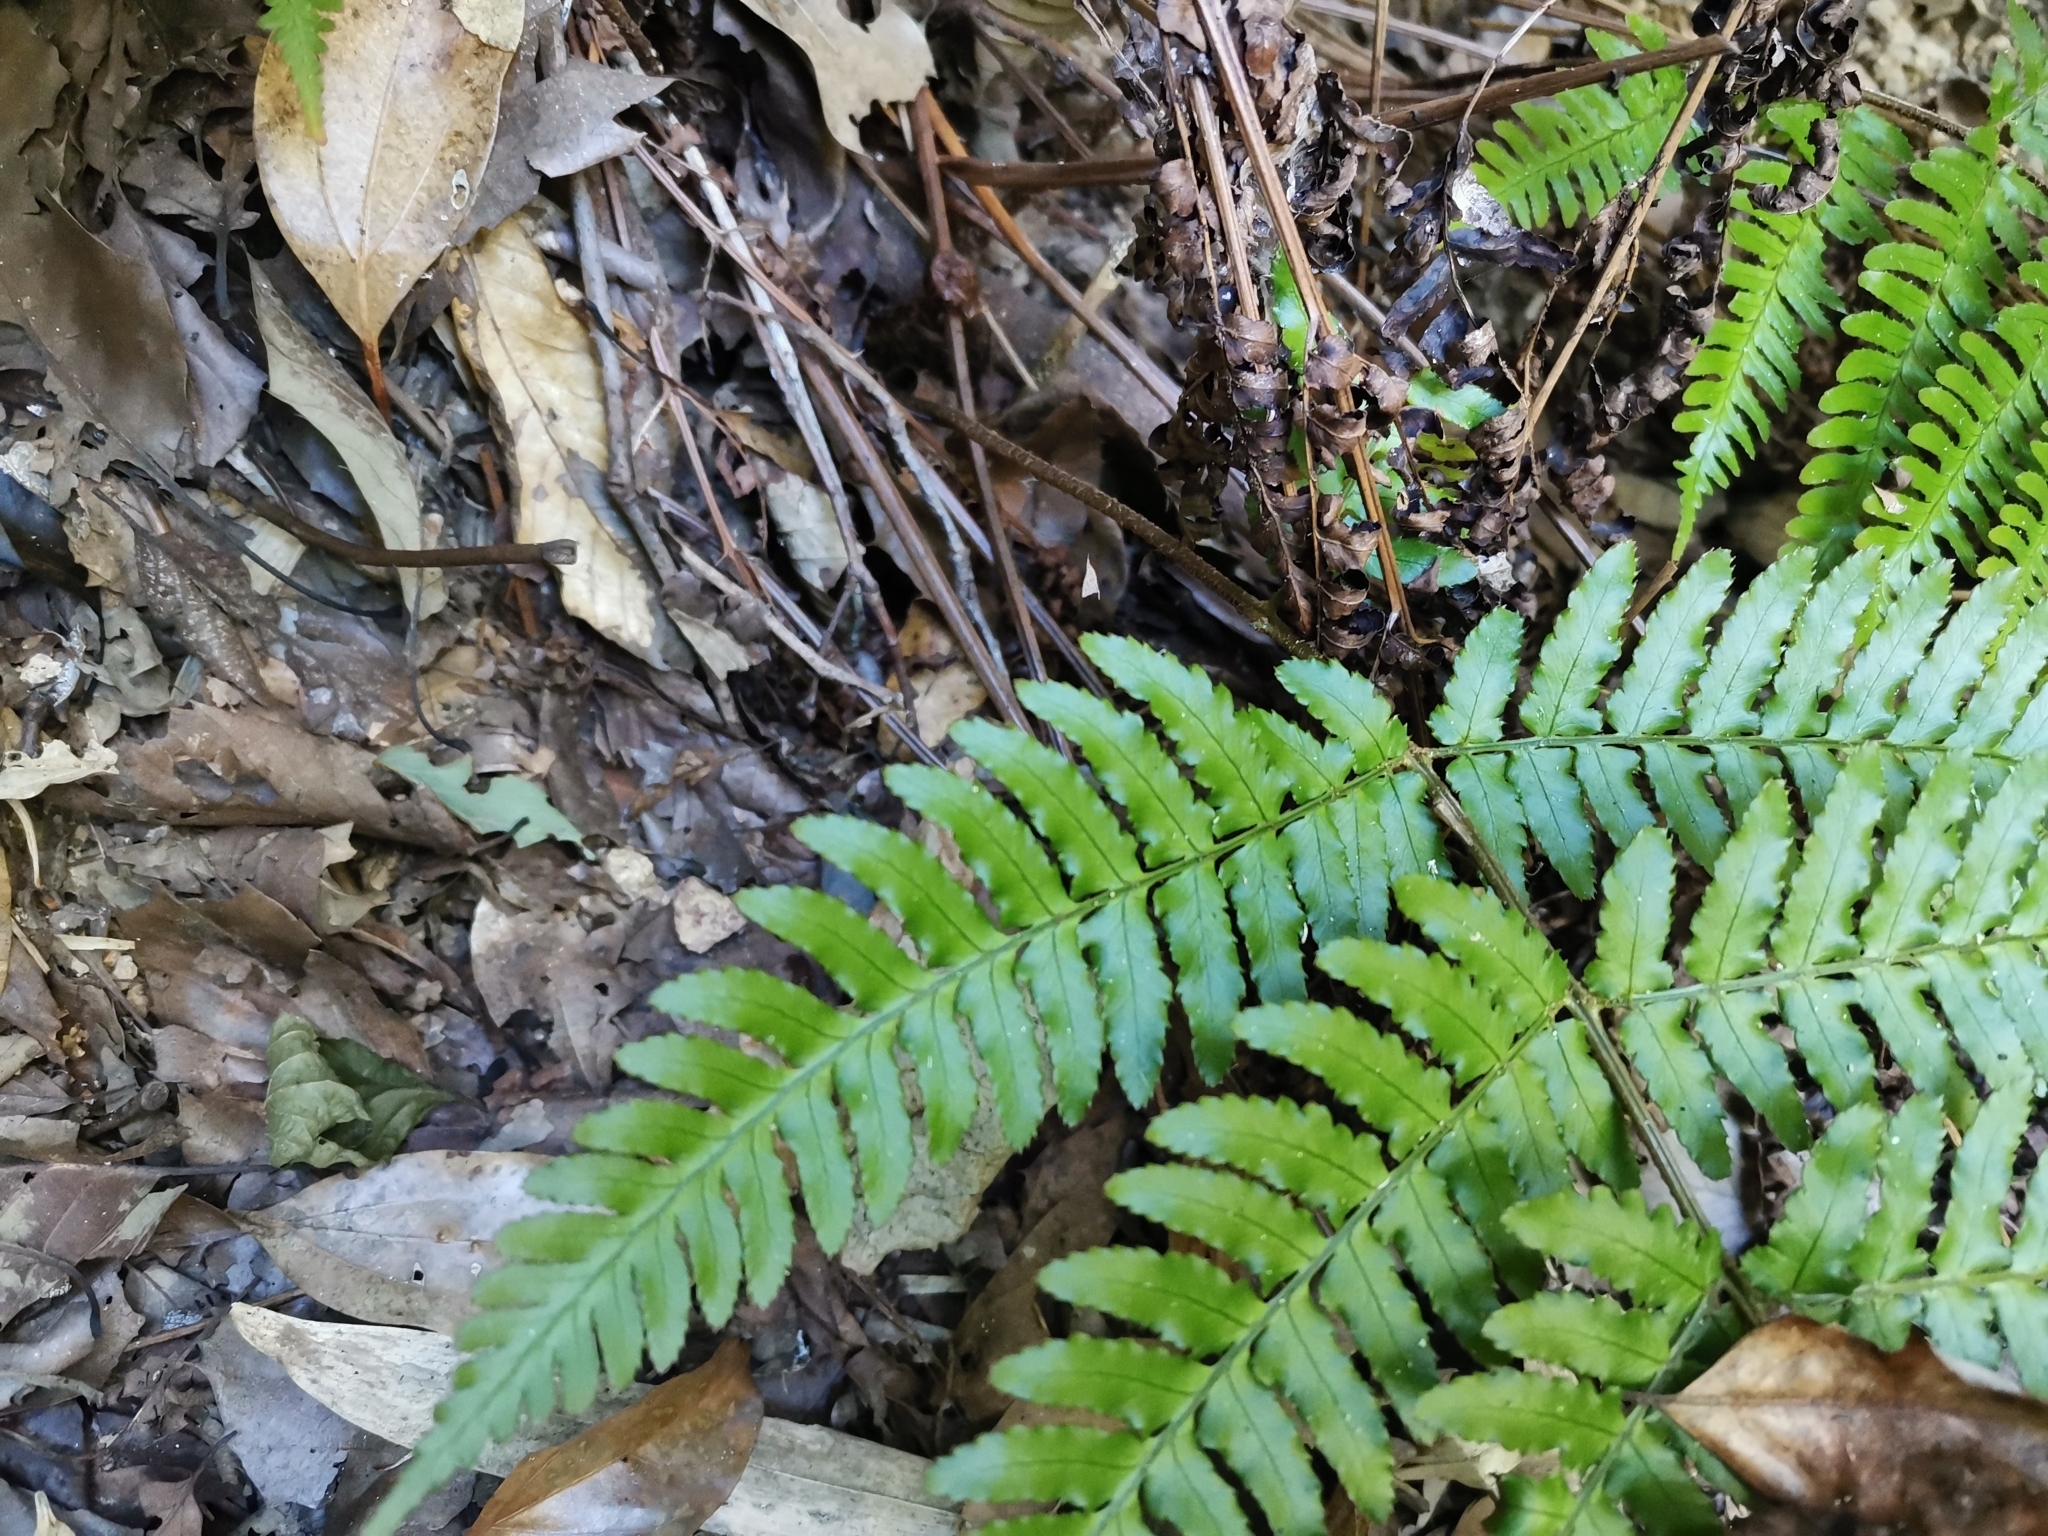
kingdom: Plantae
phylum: Tracheophyta
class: Polypodiopsida
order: Polypodiales
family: Dryopteridaceae
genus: Dryopteris
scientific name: Dryopteris erythrosora
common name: Autumn fern
